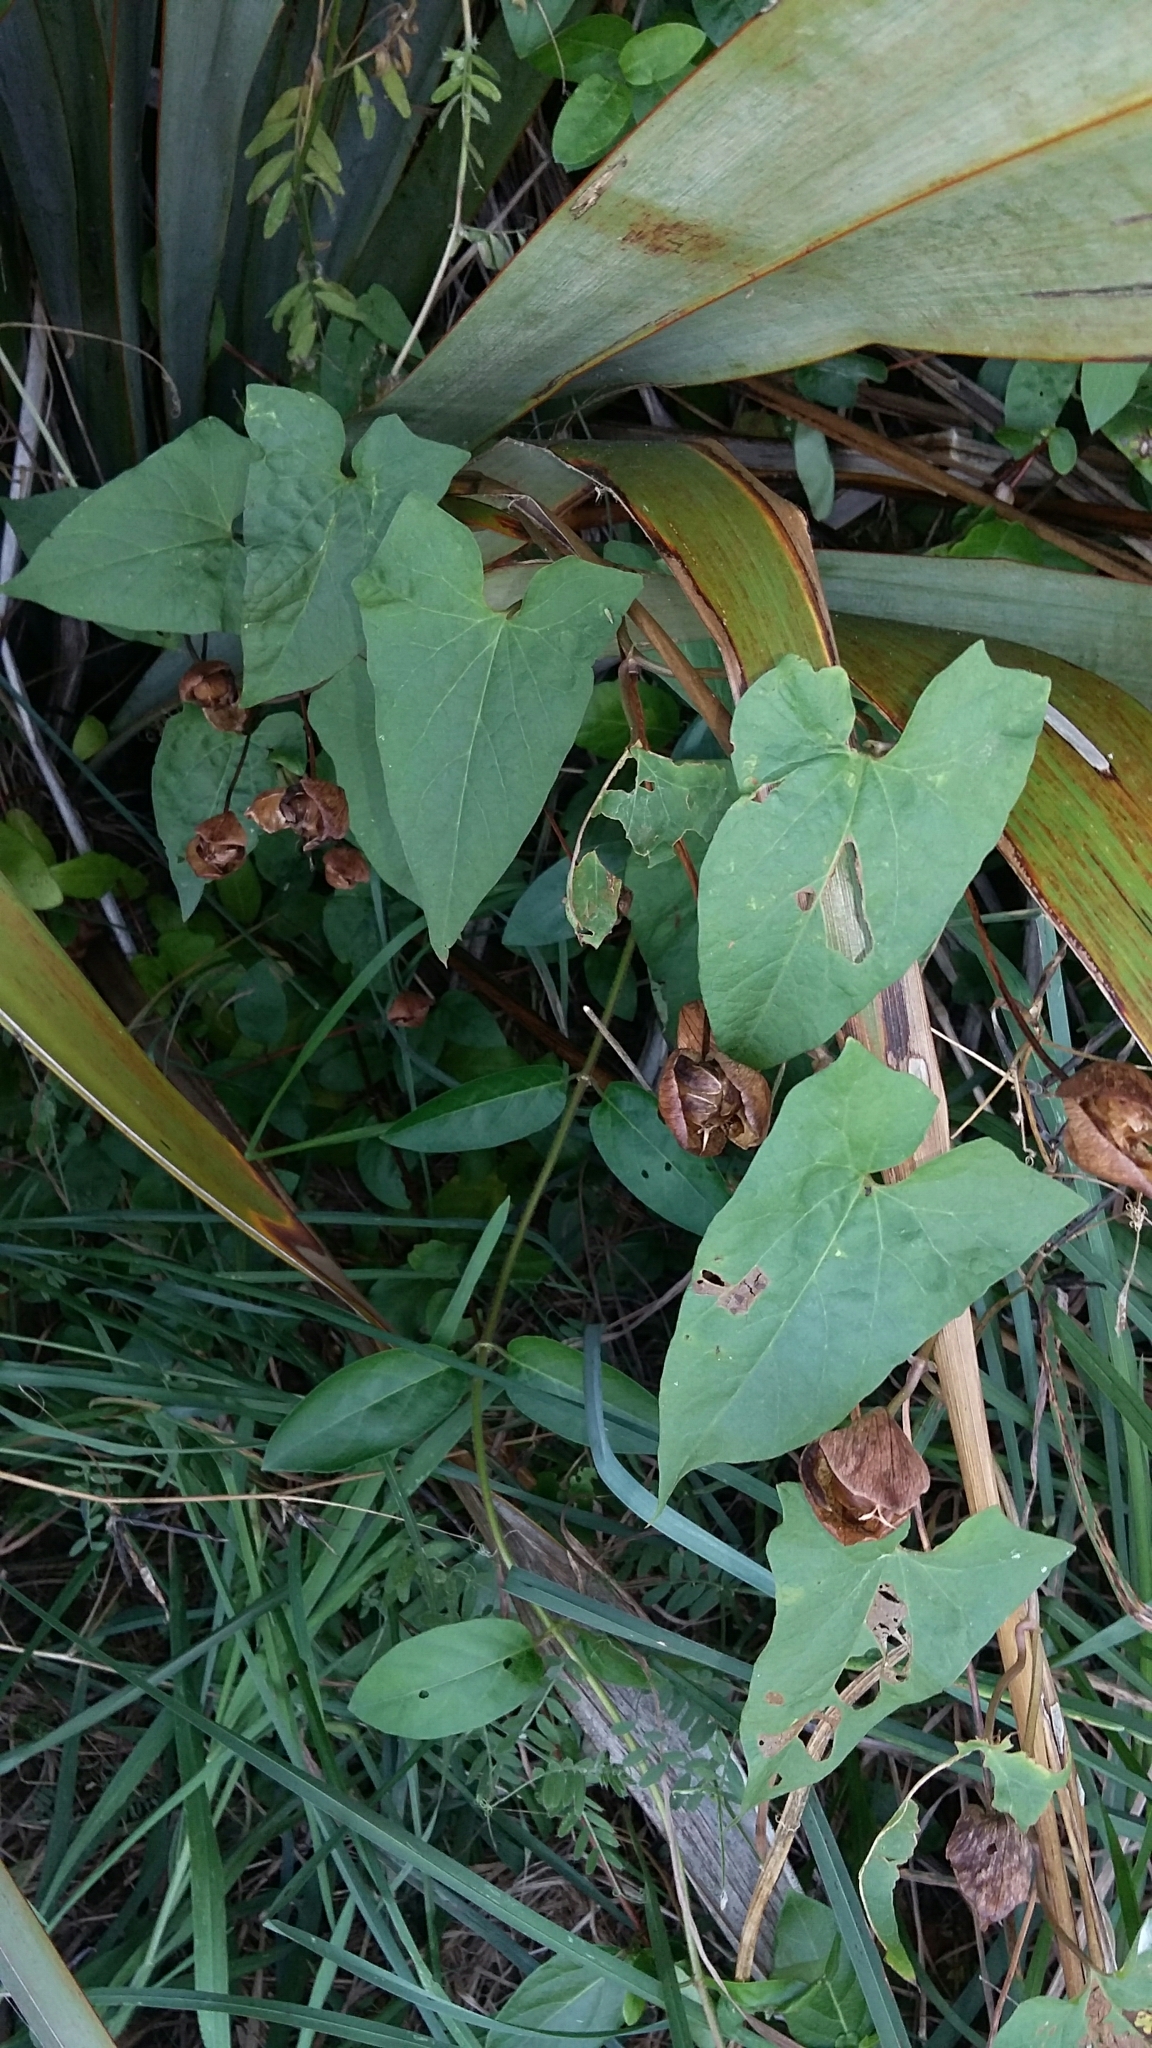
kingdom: Plantae
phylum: Tracheophyta
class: Magnoliopsida
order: Solanales
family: Convolvulaceae
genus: Calystegia
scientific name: Calystegia silvatica
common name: Large bindweed
